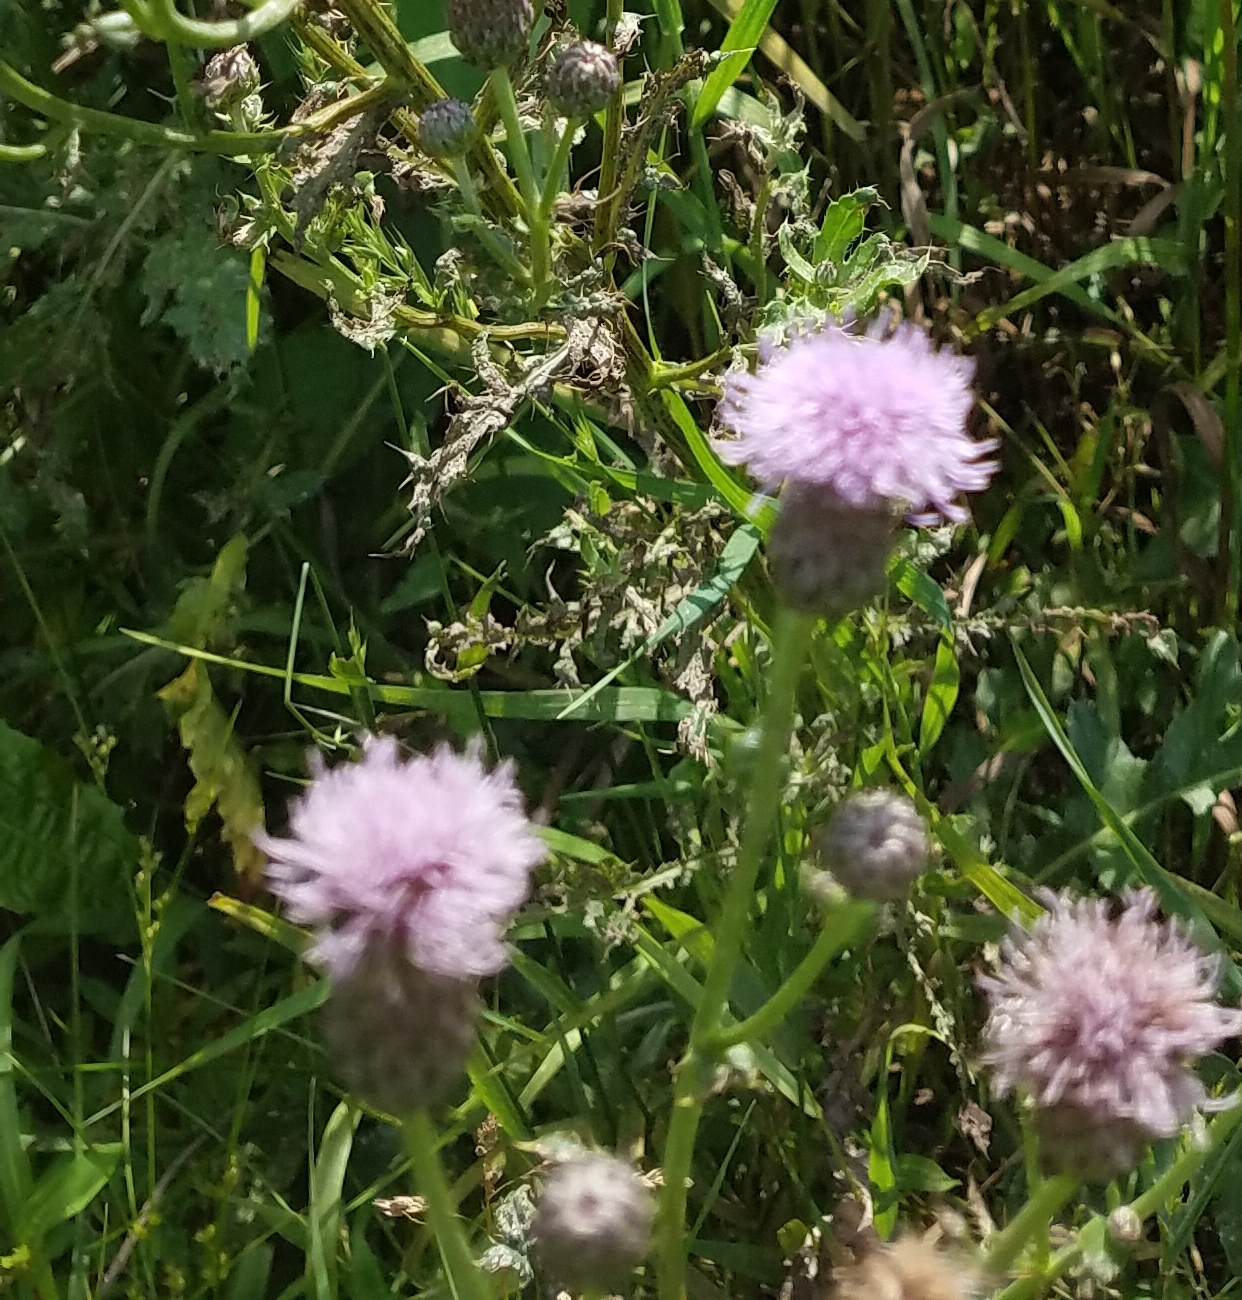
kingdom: Plantae
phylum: Tracheophyta
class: Magnoliopsida
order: Asterales
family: Asteraceae
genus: Cirsium
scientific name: Cirsium arvense
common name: Creeping thistle
